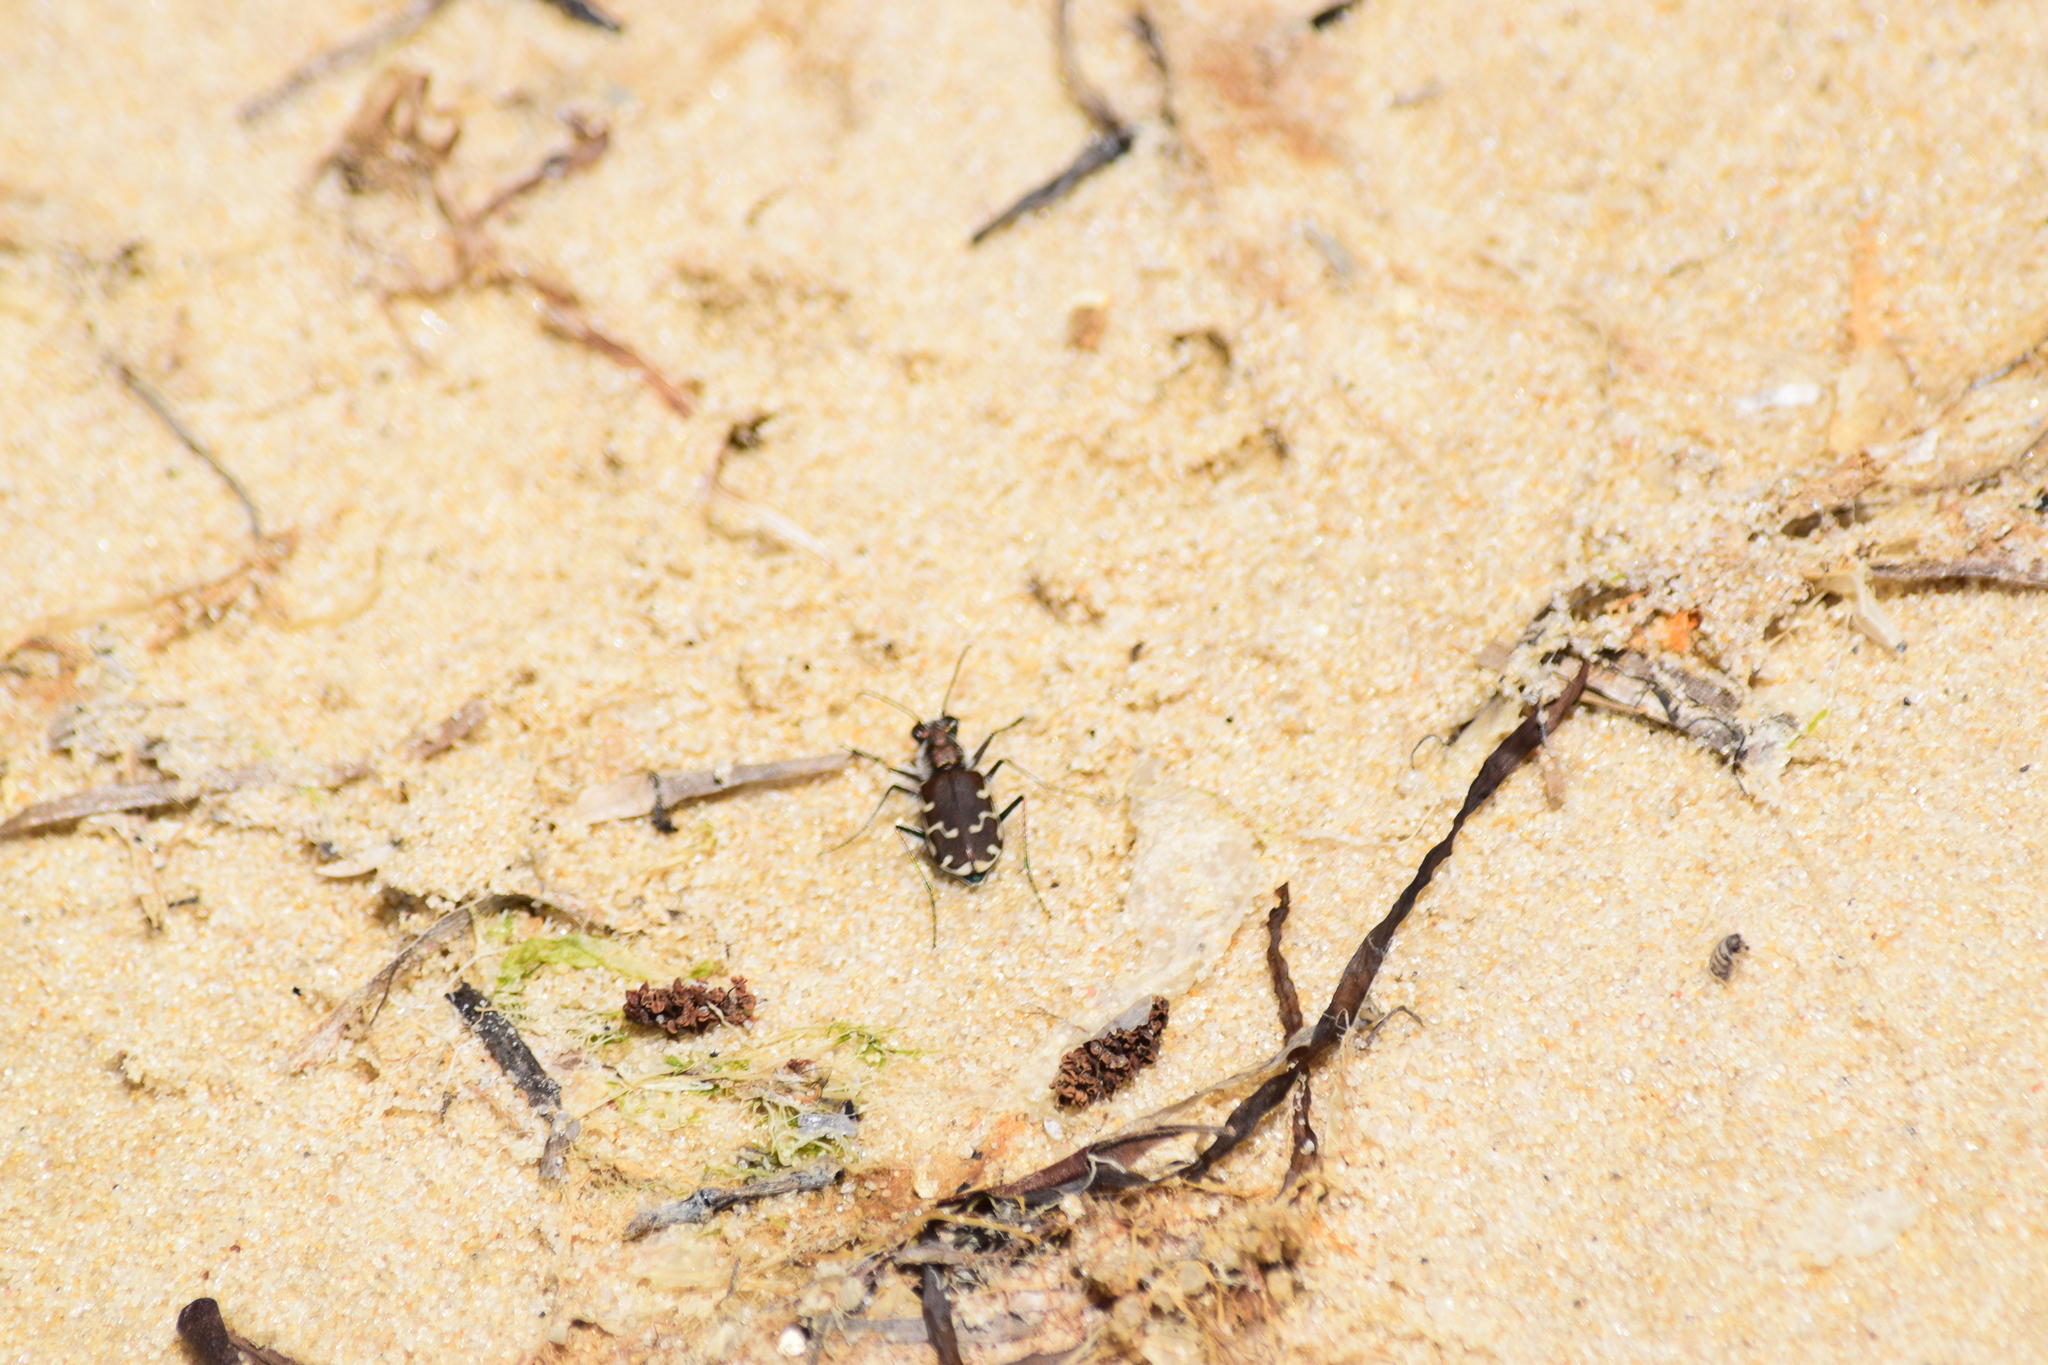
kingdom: Animalia
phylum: Arthropoda
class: Insecta
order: Coleoptera
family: Carabidae
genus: Cicindela
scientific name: Cicindela repanda
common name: Bronzed tiger beetle
